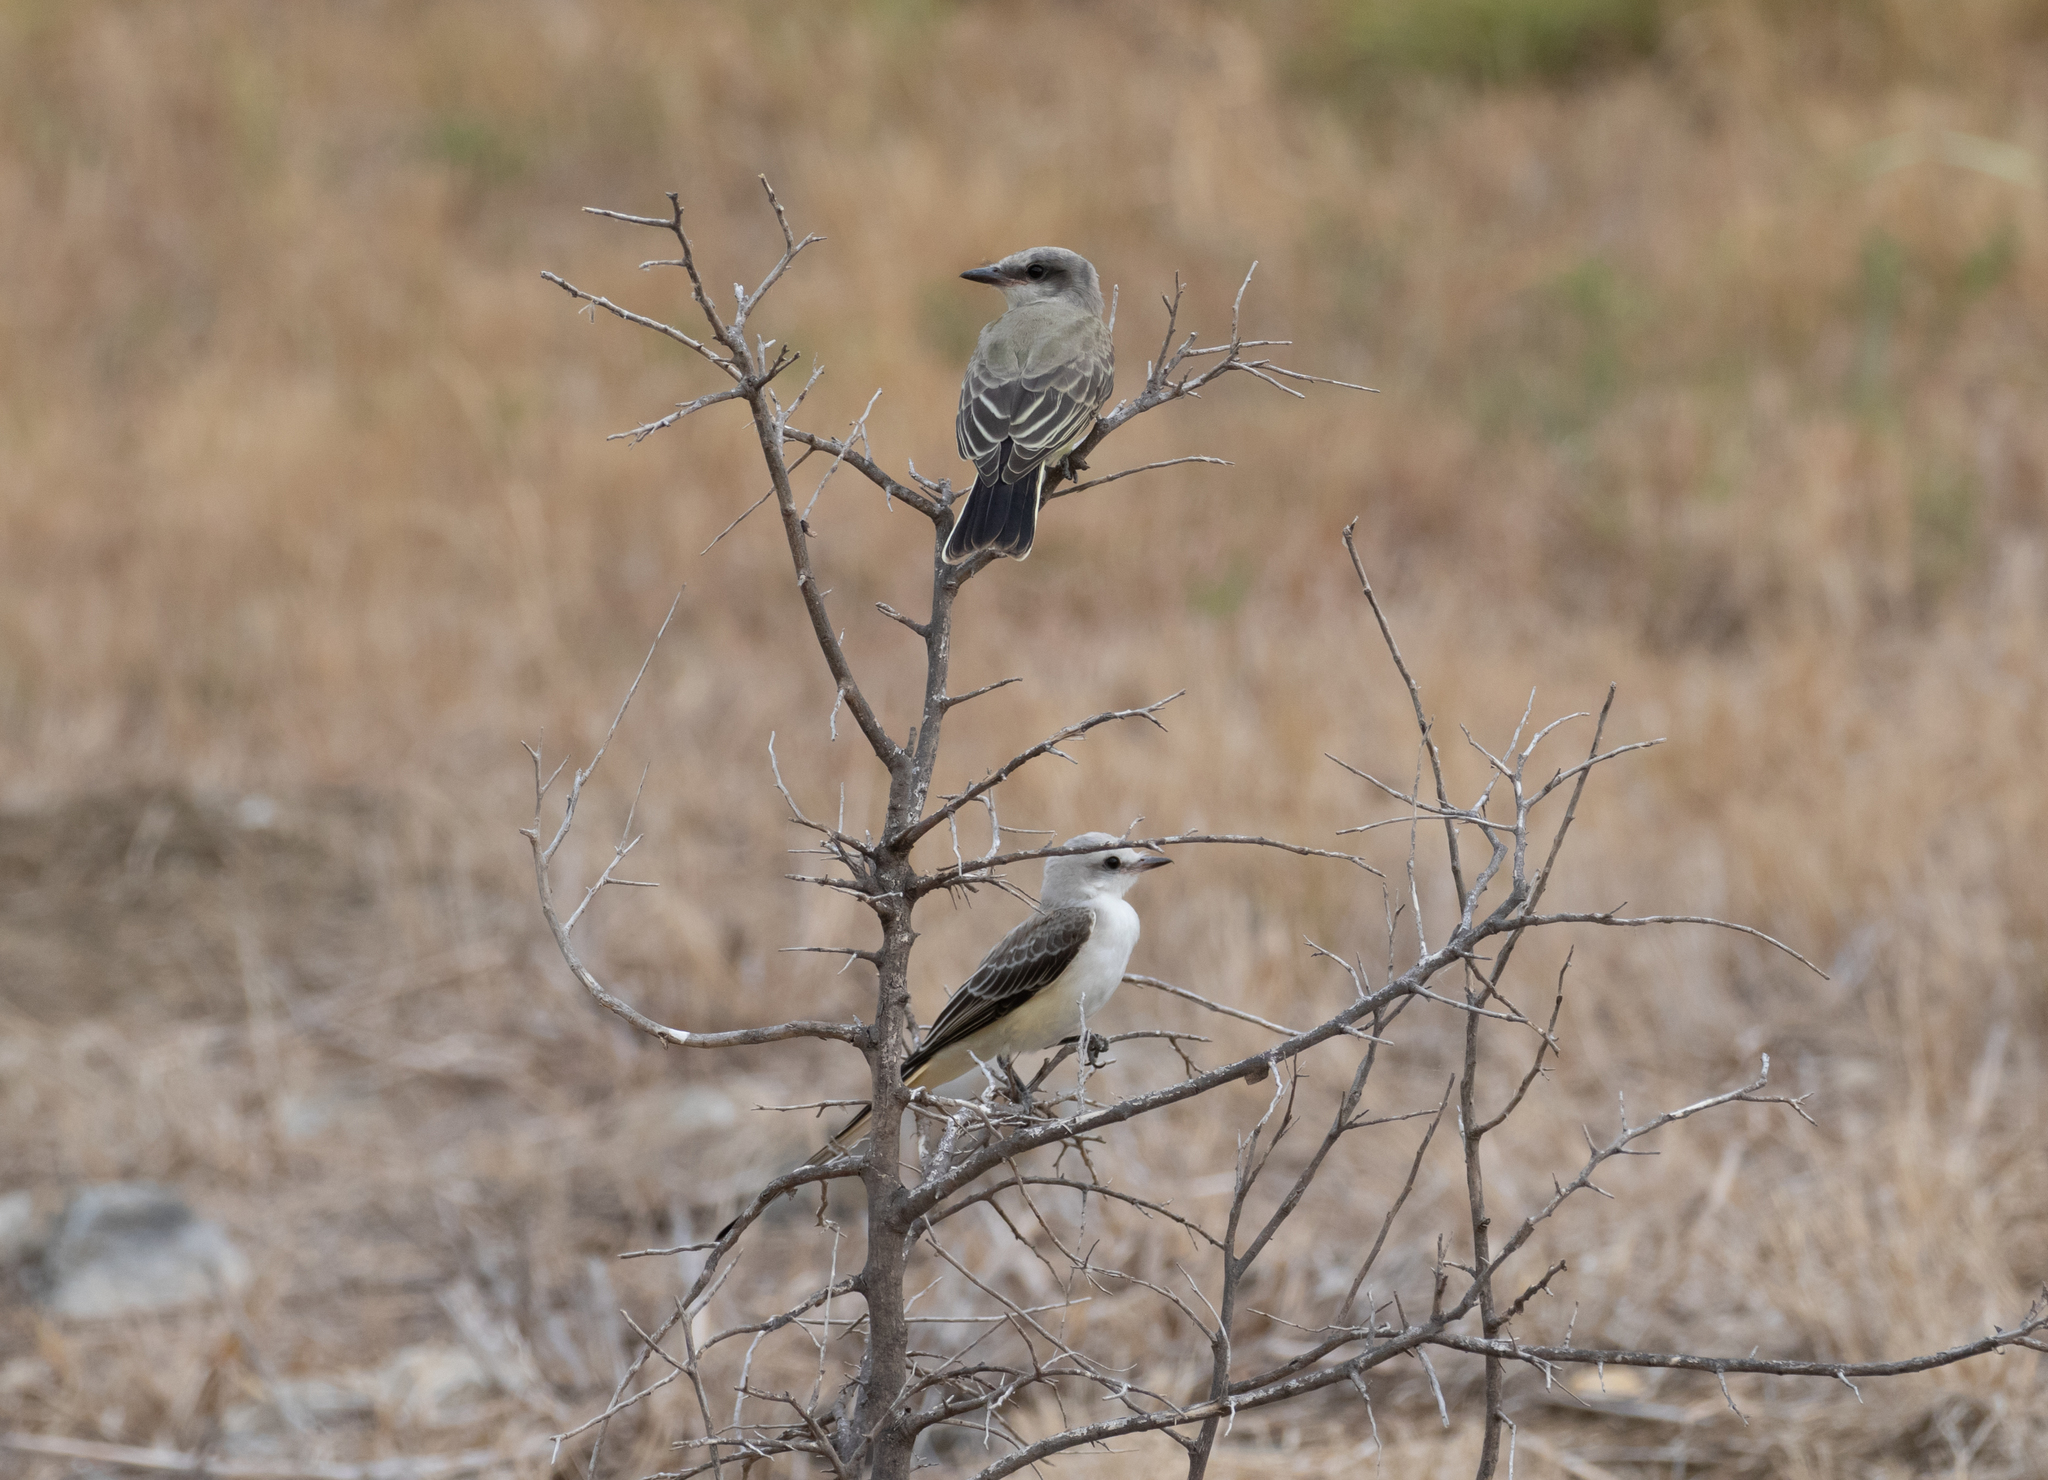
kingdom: Animalia
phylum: Chordata
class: Aves
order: Passeriformes
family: Tyrannidae
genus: Tyrannus
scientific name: Tyrannus forficatus
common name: Scissor-tailed flycatcher
